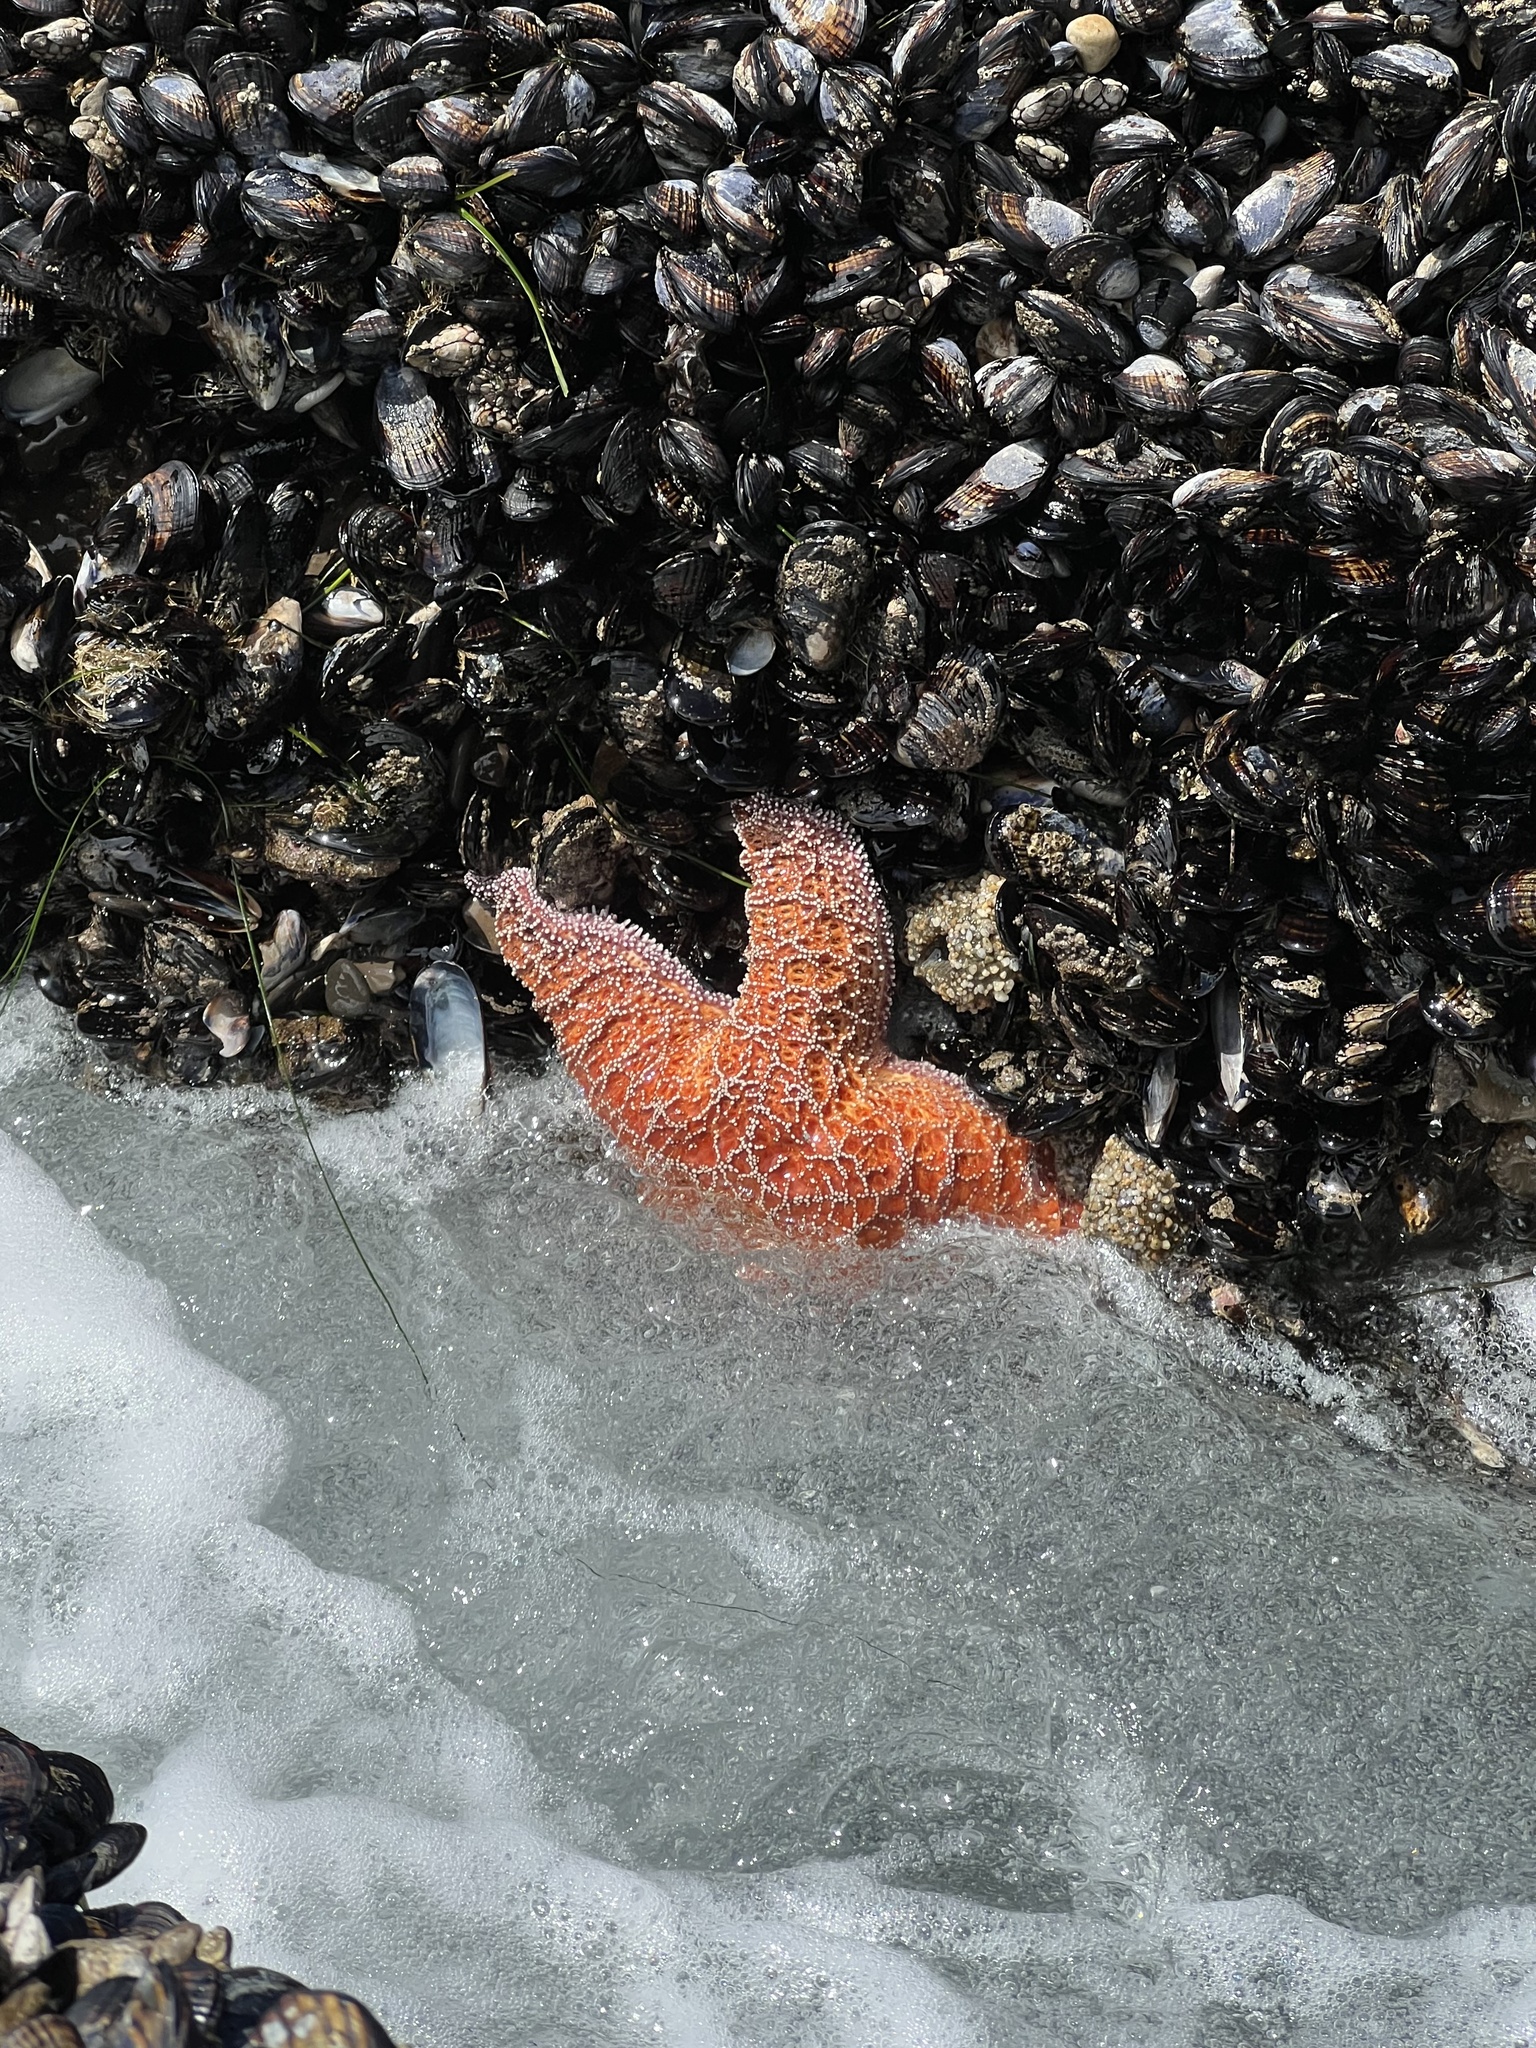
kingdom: Animalia
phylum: Echinodermata
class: Asteroidea
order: Forcipulatida
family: Asteriidae
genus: Pisaster
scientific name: Pisaster ochraceus
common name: Ochre stars
